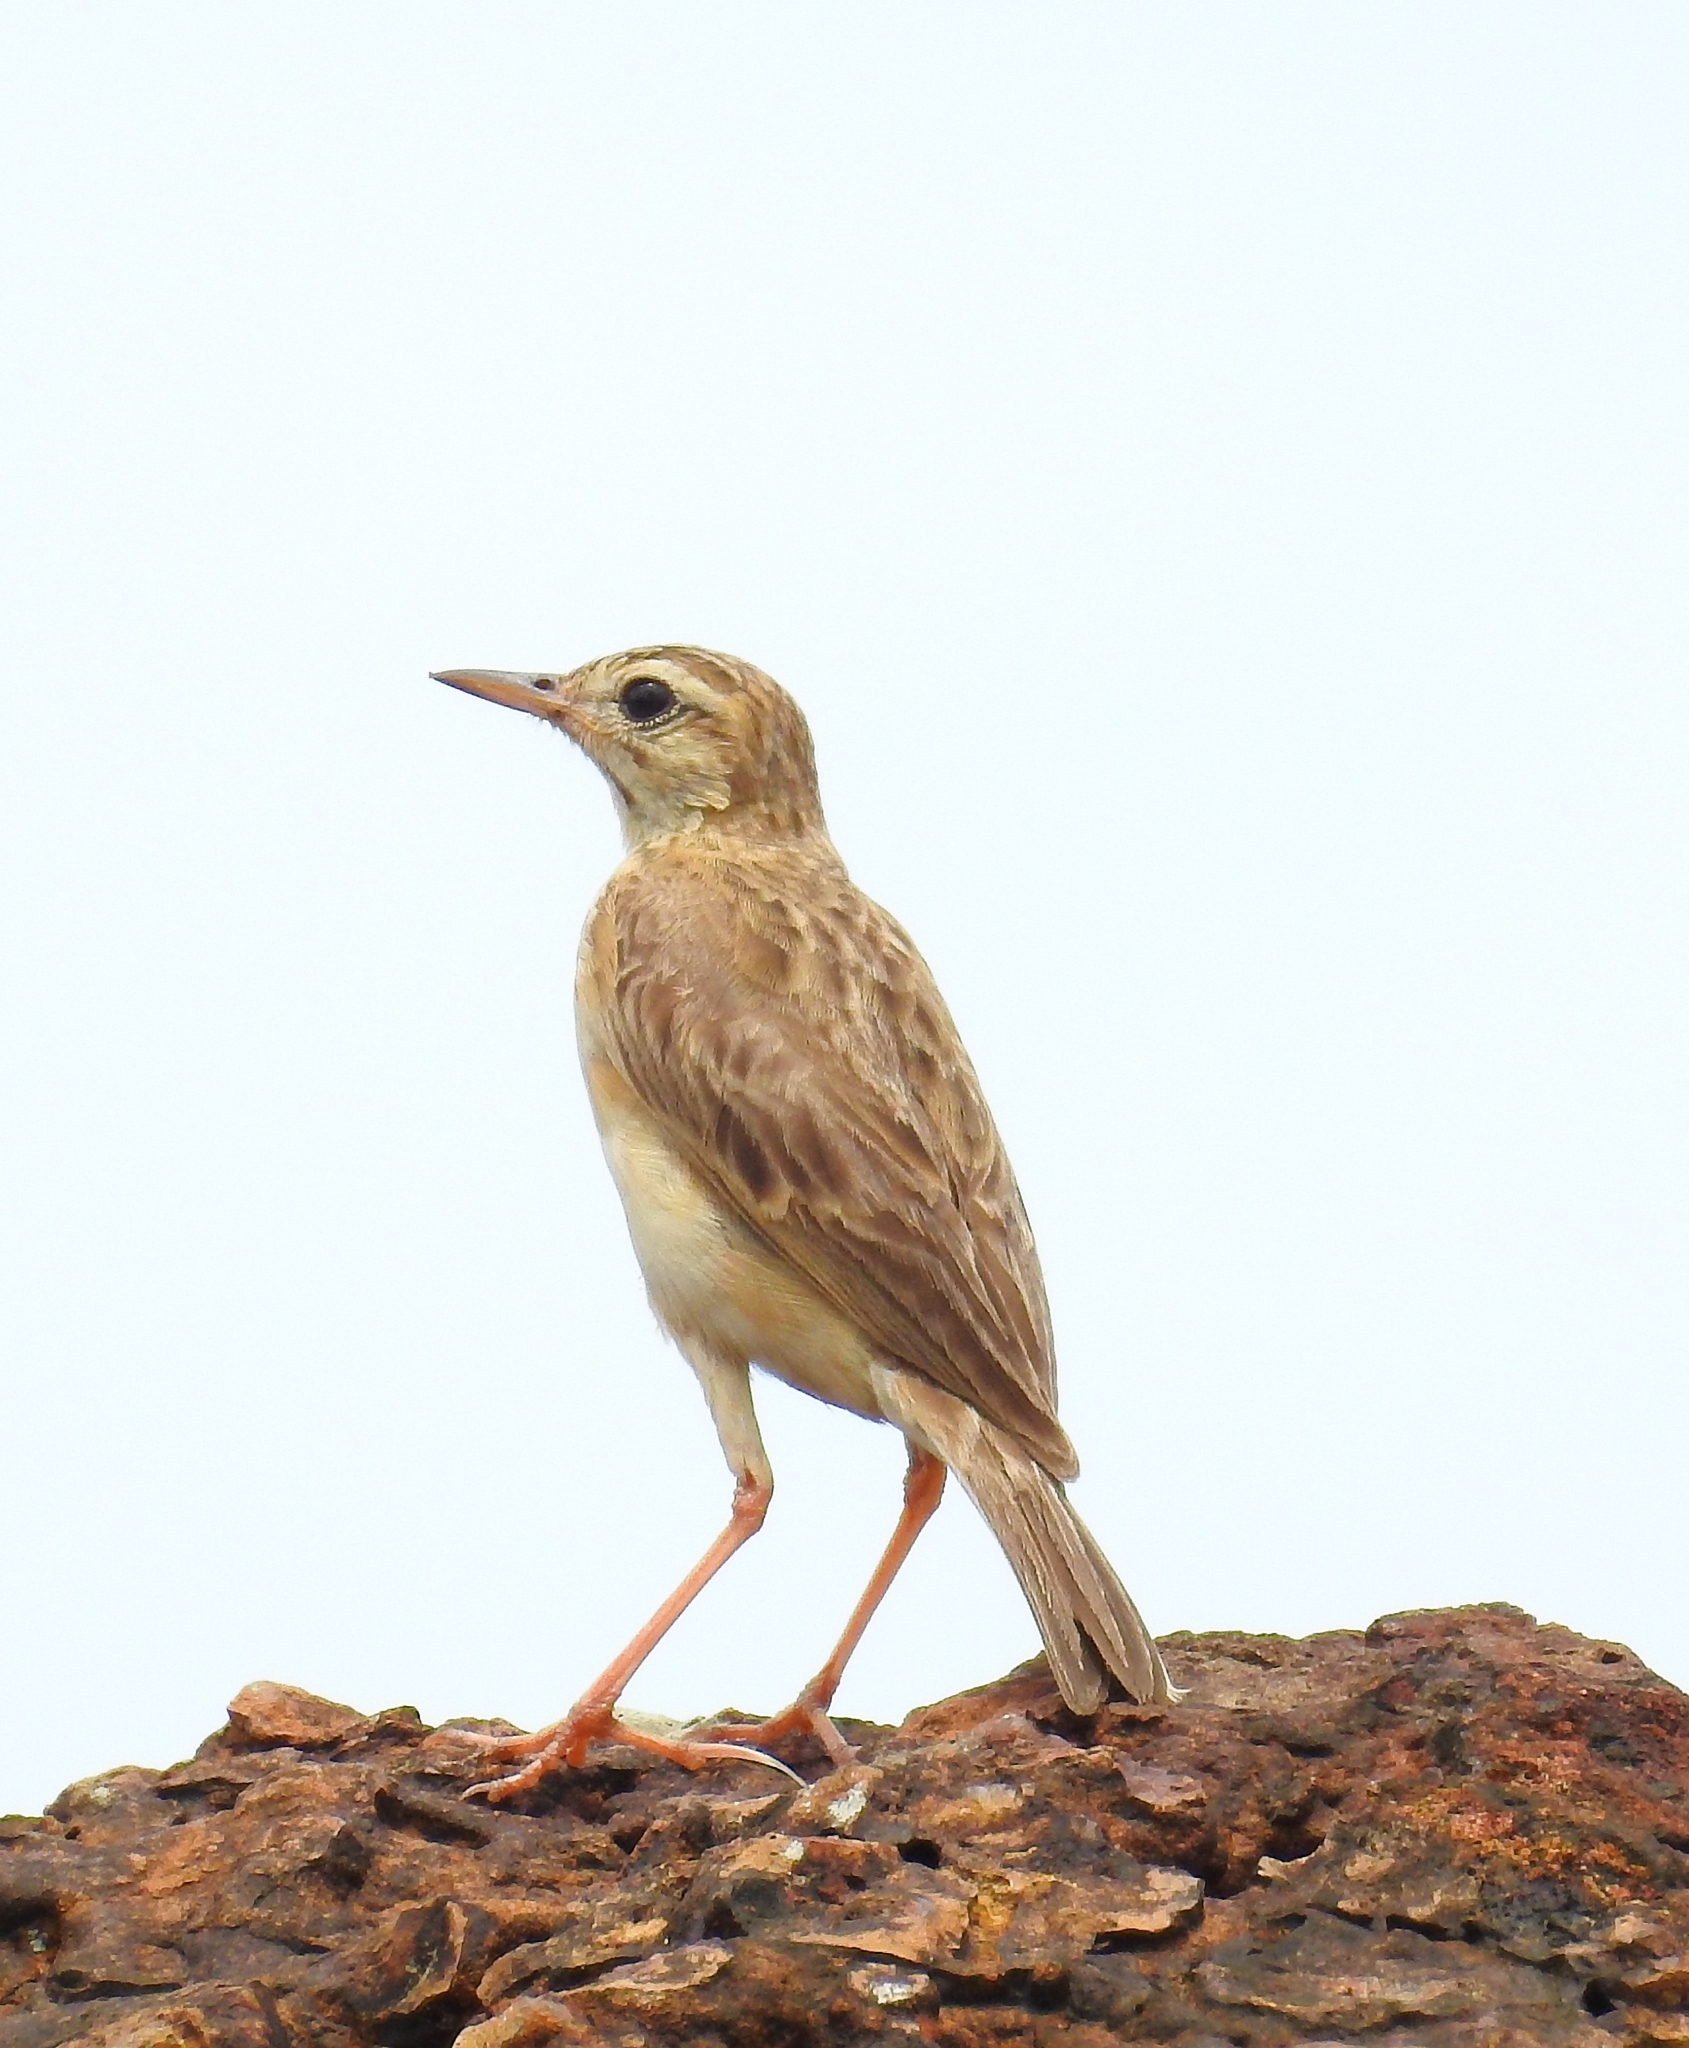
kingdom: Animalia
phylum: Chordata
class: Aves
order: Passeriformes
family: Motacillidae
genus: Anthus
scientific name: Anthus rufulus
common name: Paddyfield pipit
